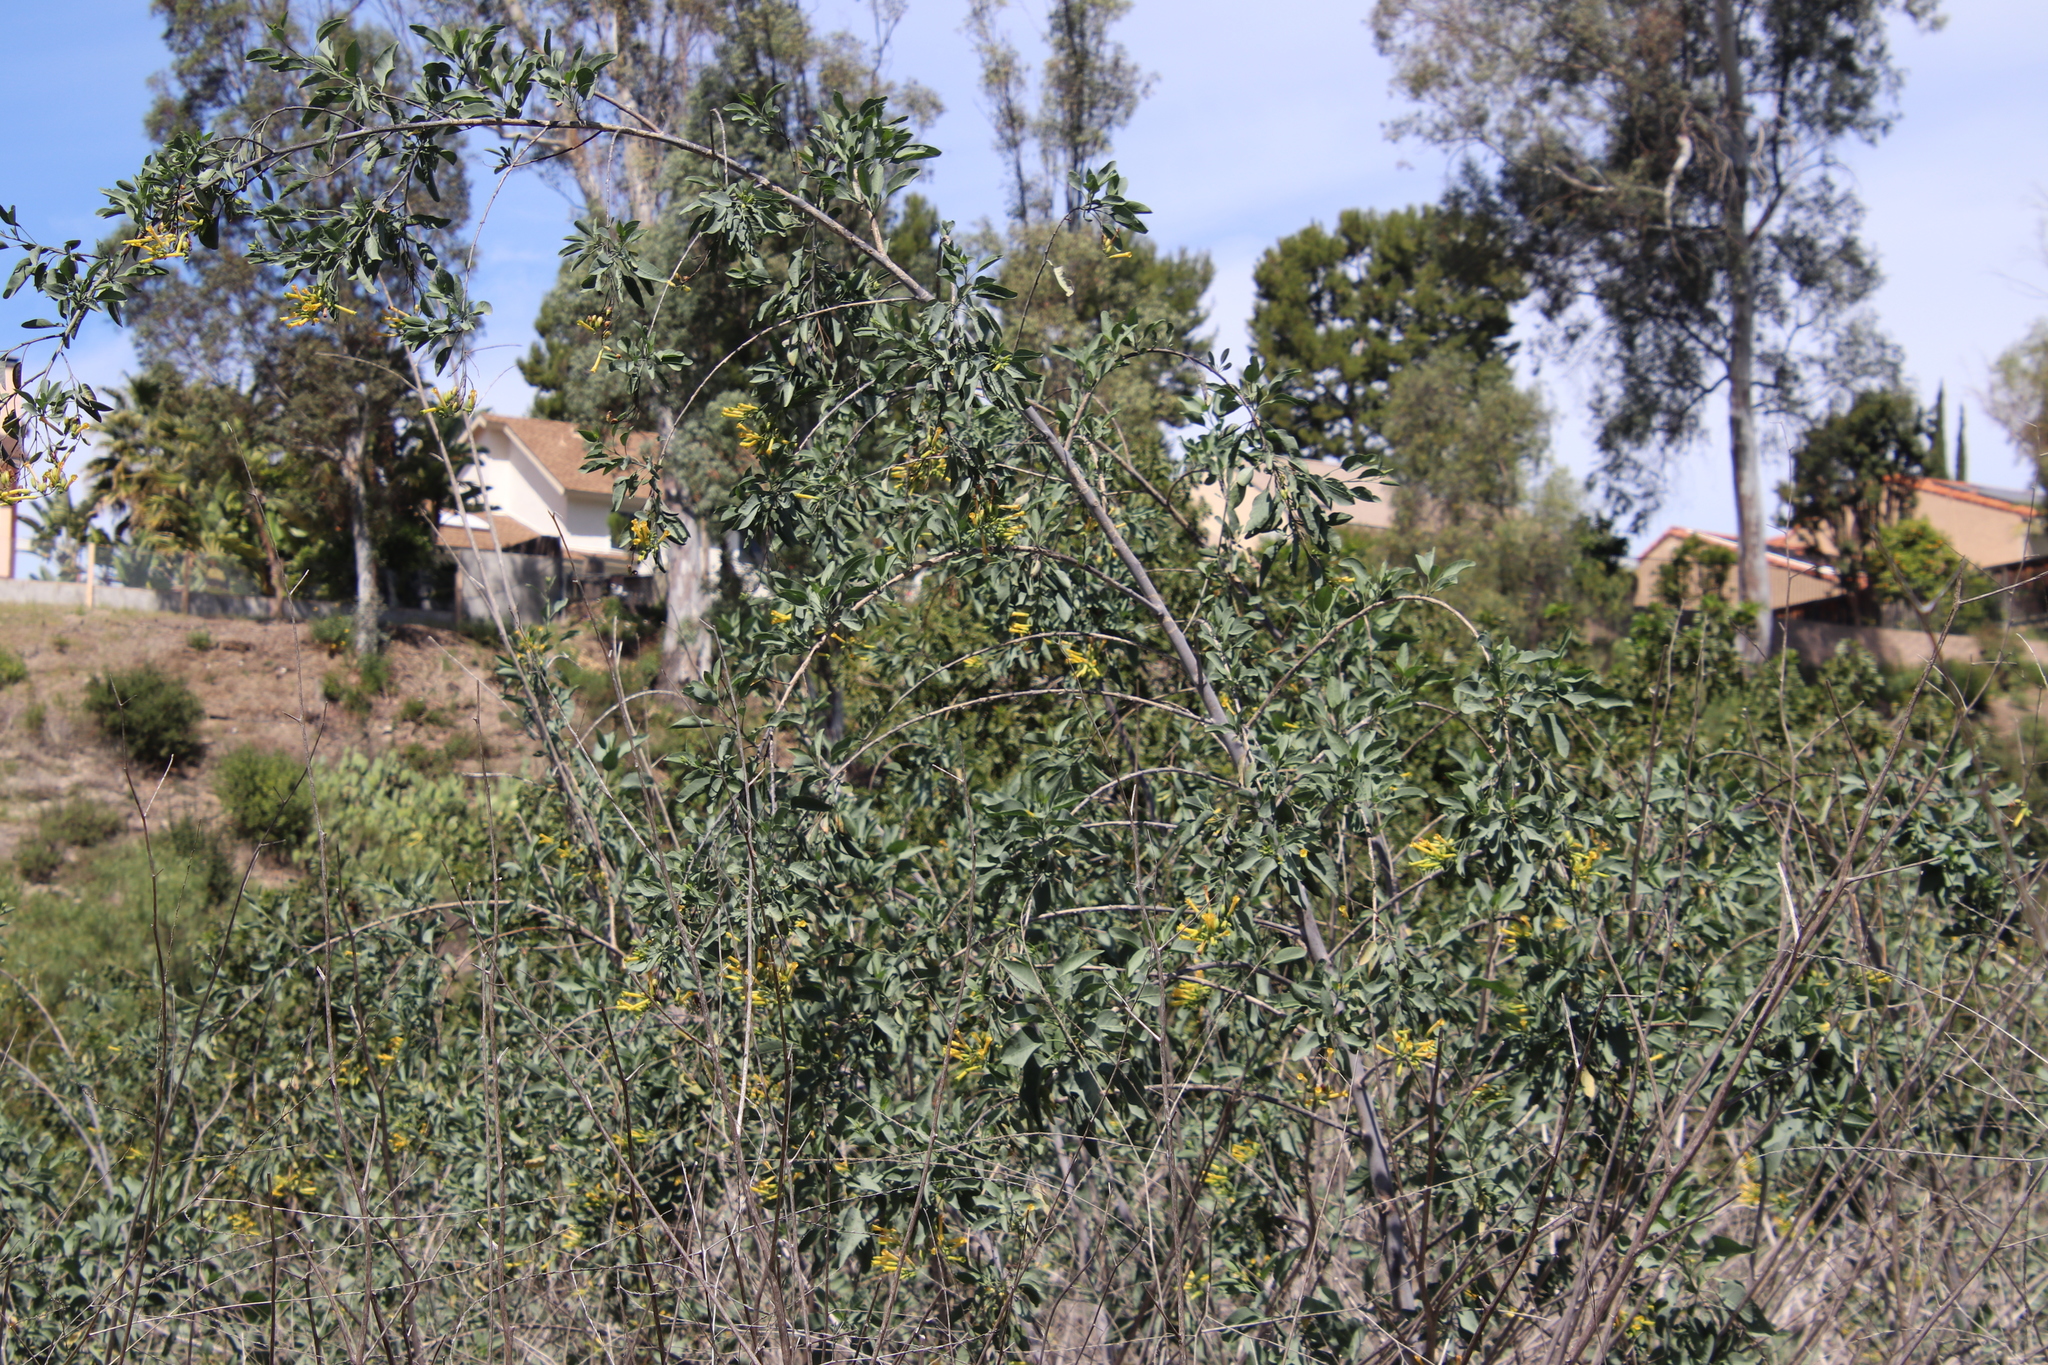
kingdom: Plantae
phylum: Tracheophyta
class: Magnoliopsida
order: Solanales
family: Solanaceae
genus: Nicotiana
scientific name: Nicotiana glauca
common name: Tree tobacco
